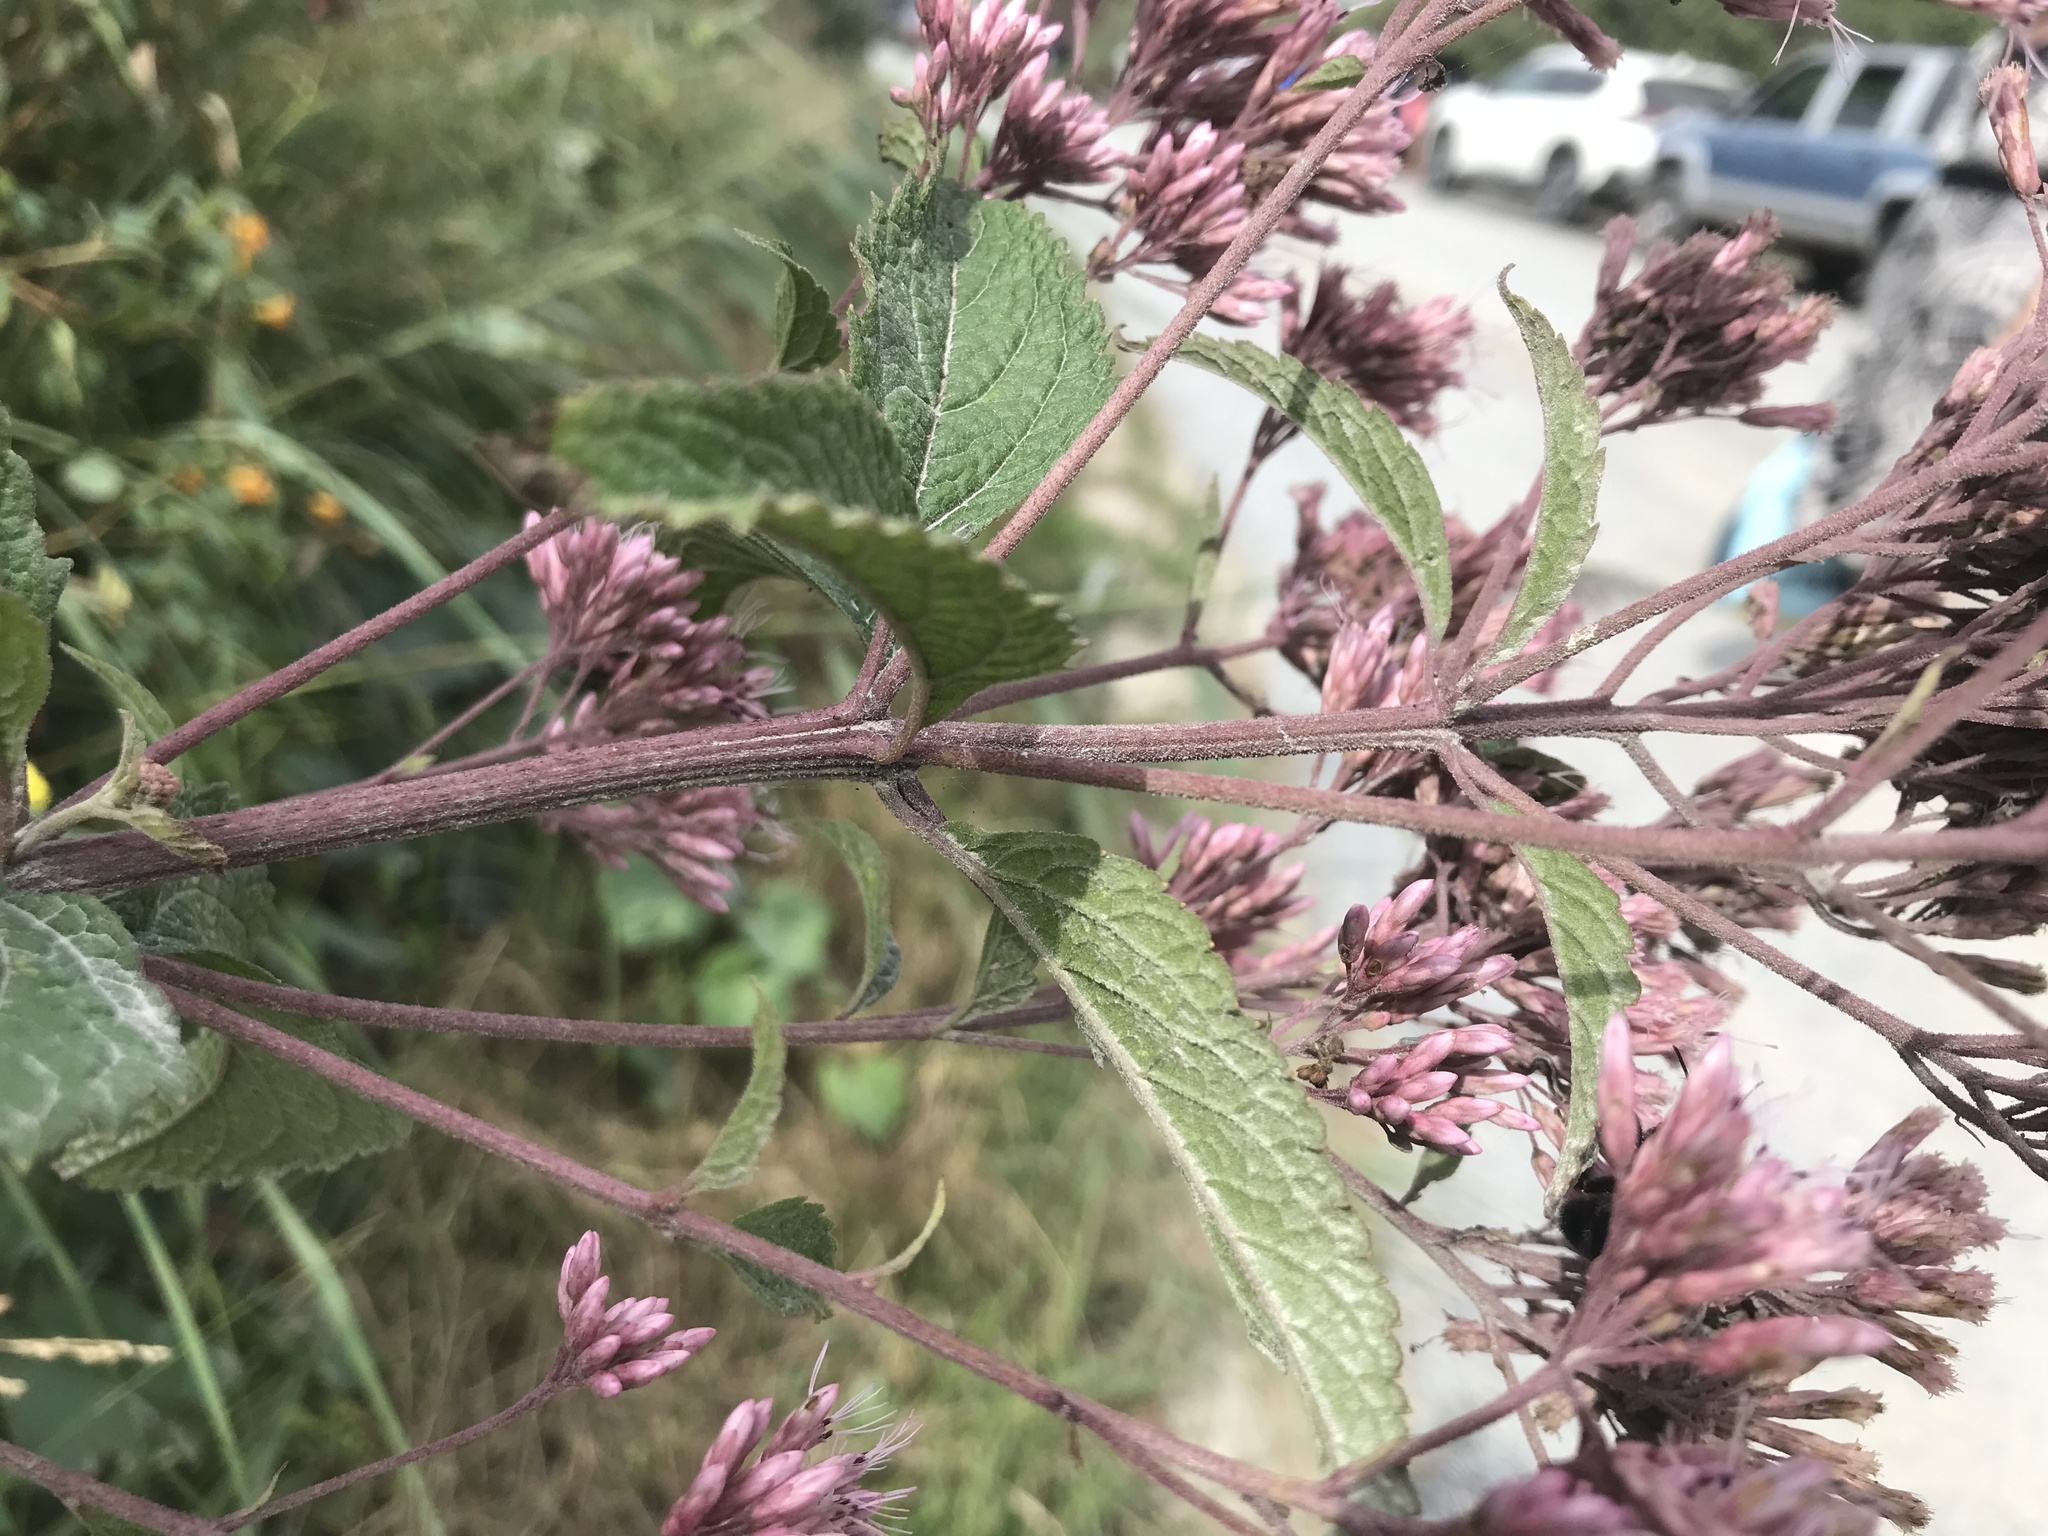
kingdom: Plantae
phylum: Tracheophyta
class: Magnoliopsida
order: Asterales
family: Asteraceae
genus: Eutrochium
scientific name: Eutrochium dubium
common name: Coastal plain joe pye weed
